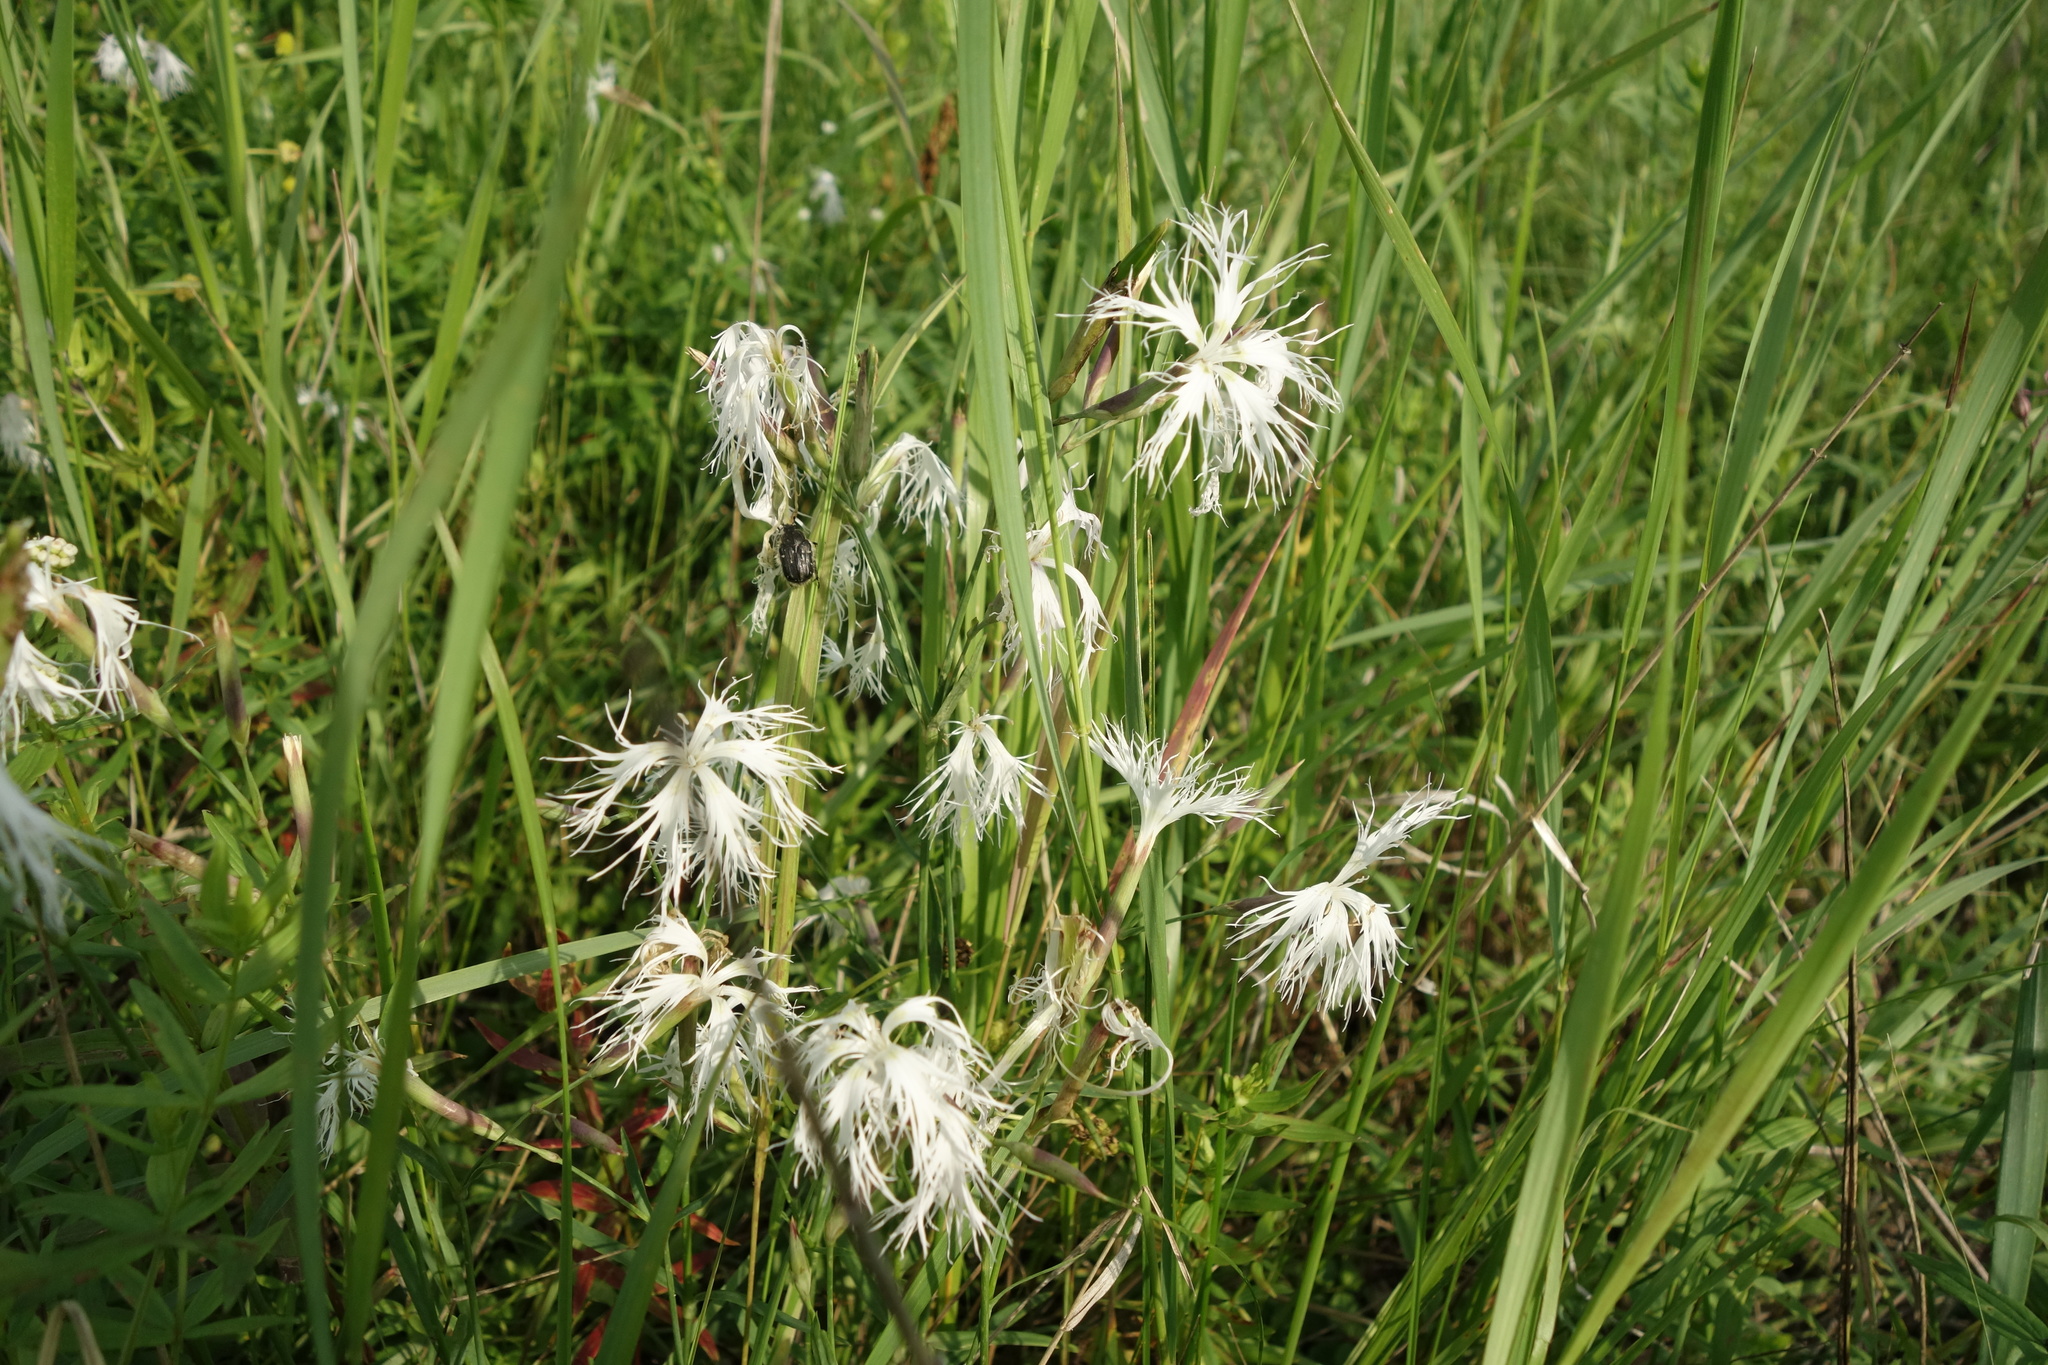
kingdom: Plantae
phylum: Tracheophyta
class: Magnoliopsida
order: Caryophyllales
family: Caryophyllaceae
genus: Dianthus
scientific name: Dianthus superbus
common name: Fringed pink
